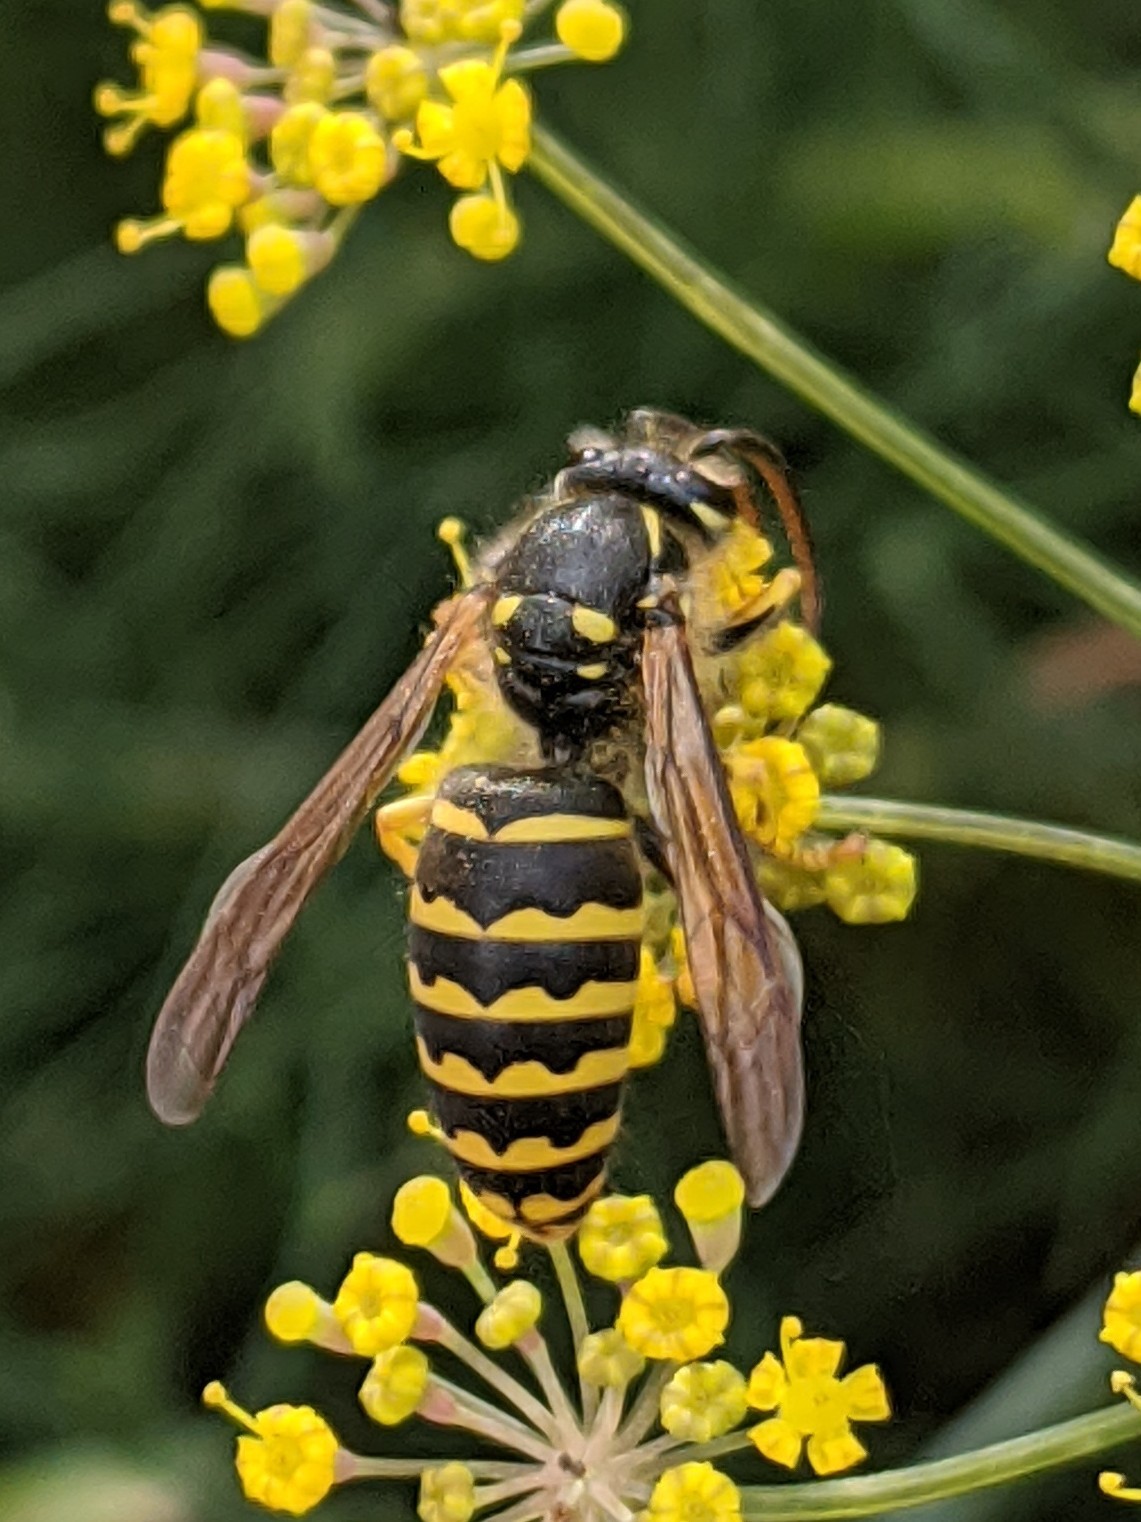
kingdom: Animalia
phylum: Arthropoda
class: Insecta
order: Hymenoptera
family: Vespidae
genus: Dolichovespula
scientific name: Dolichovespula arenaria
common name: Aerial yellowjacket
